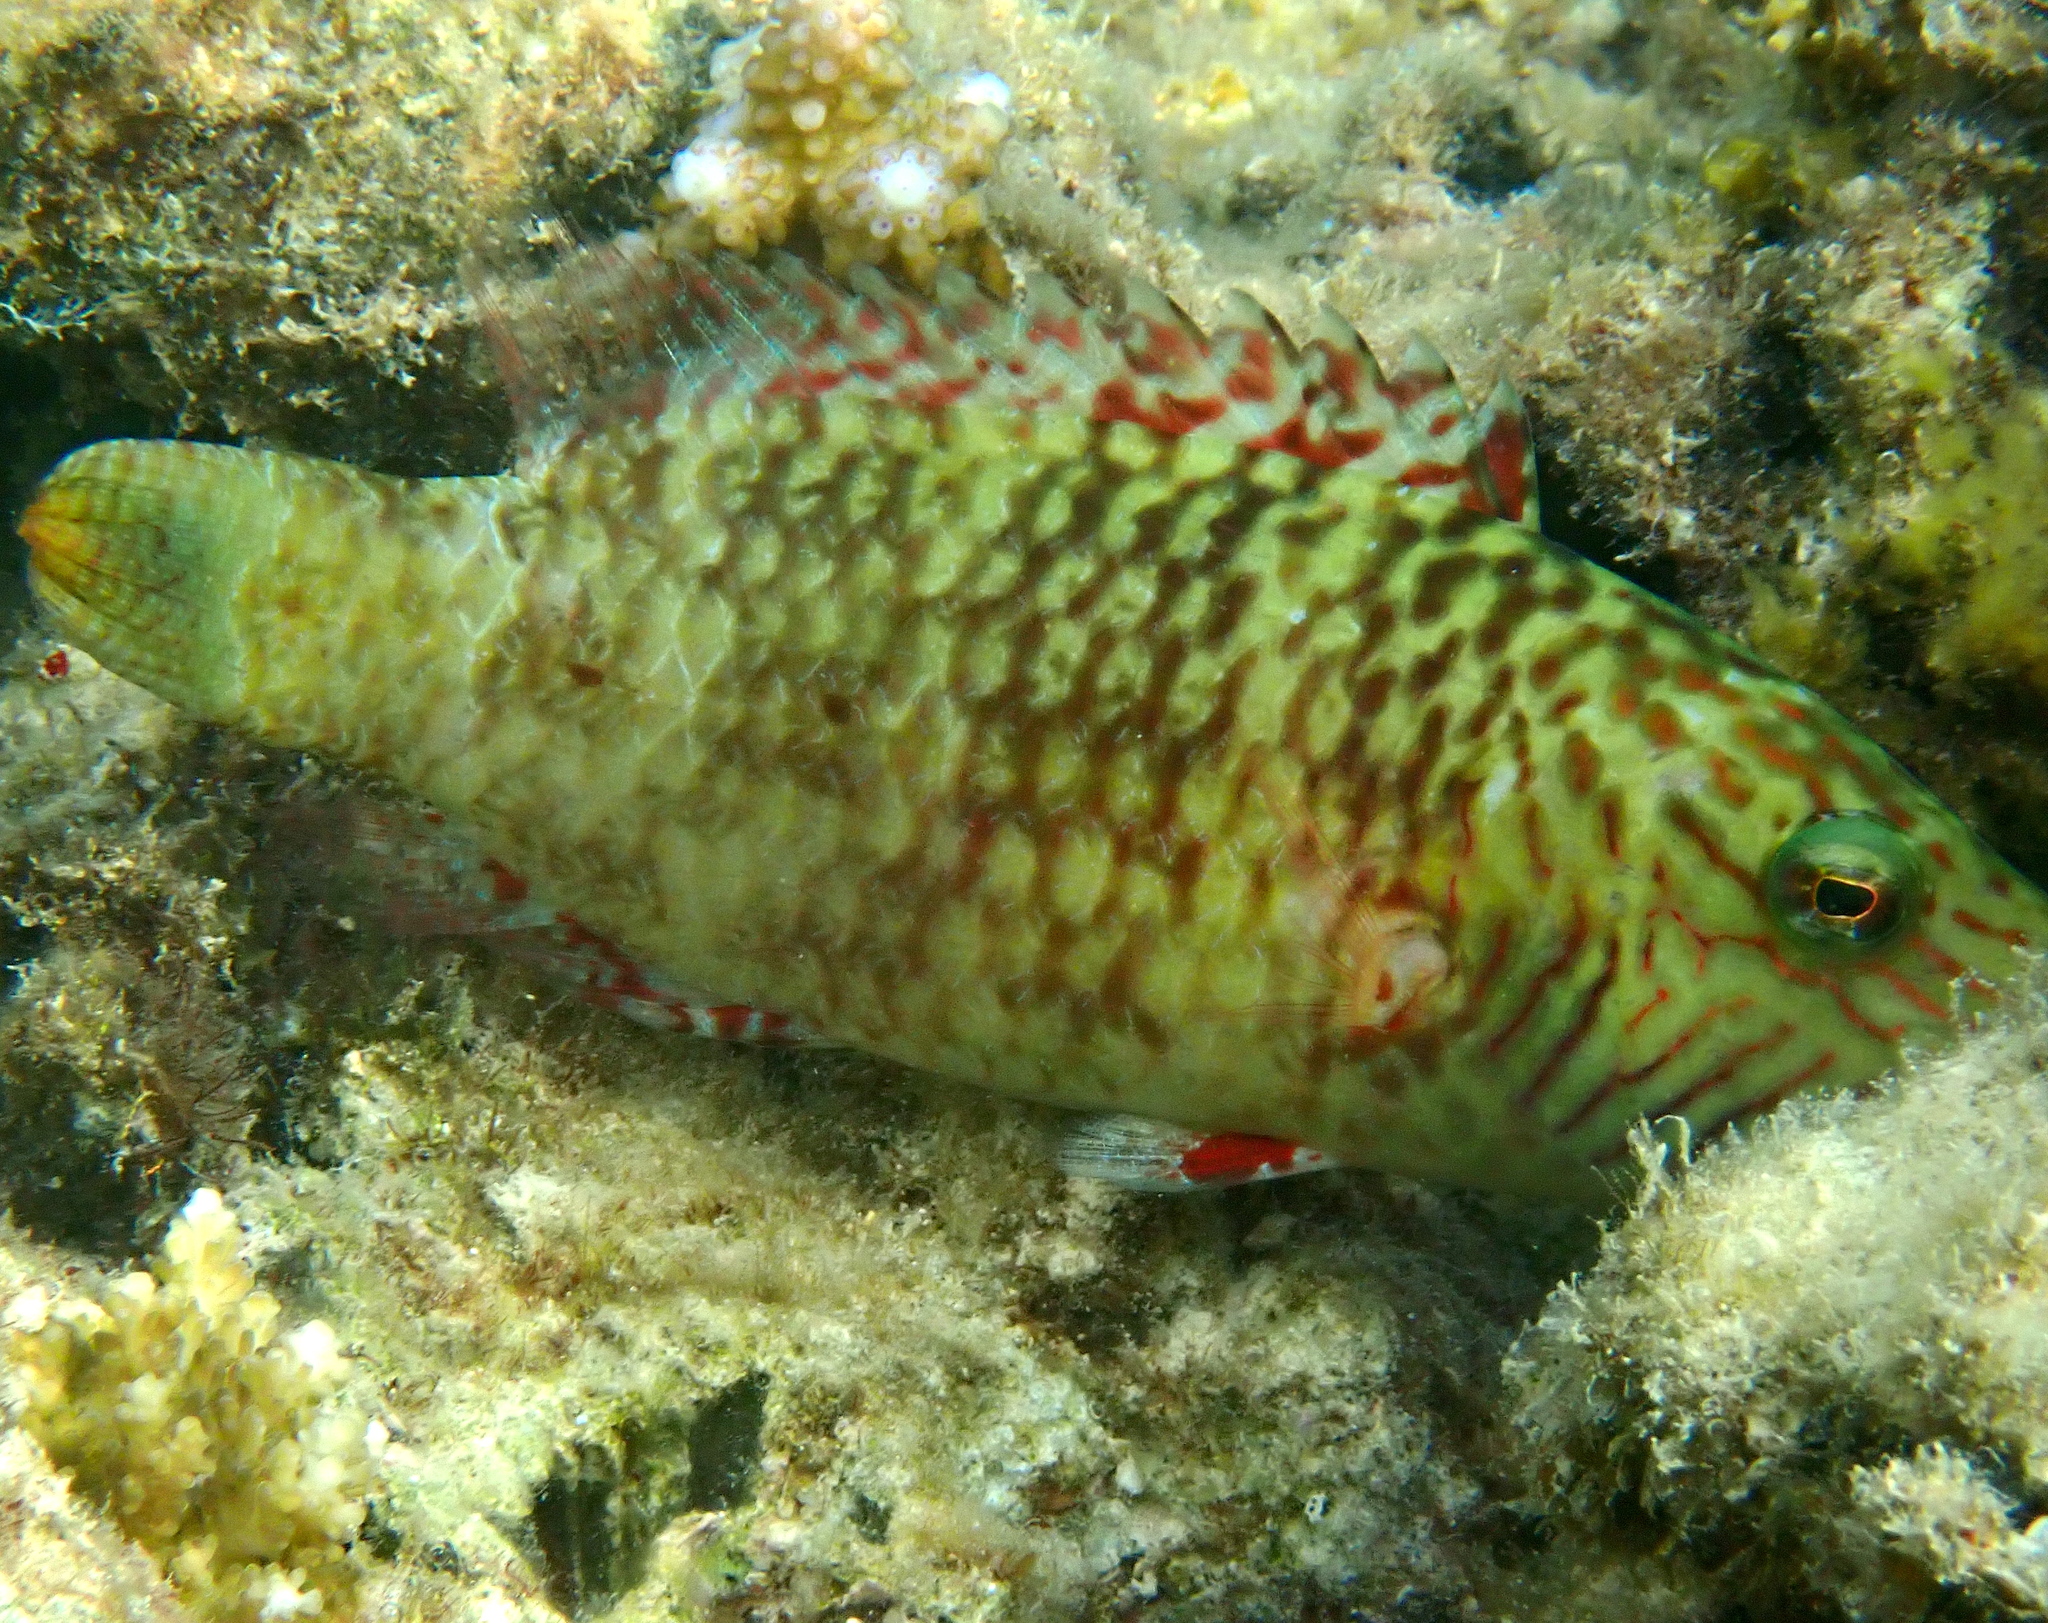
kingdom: Animalia
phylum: Chordata
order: Perciformes
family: Labridae
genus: Oxycheilinus
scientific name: Oxycheilinus digramma
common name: Bandcheek wrasse
